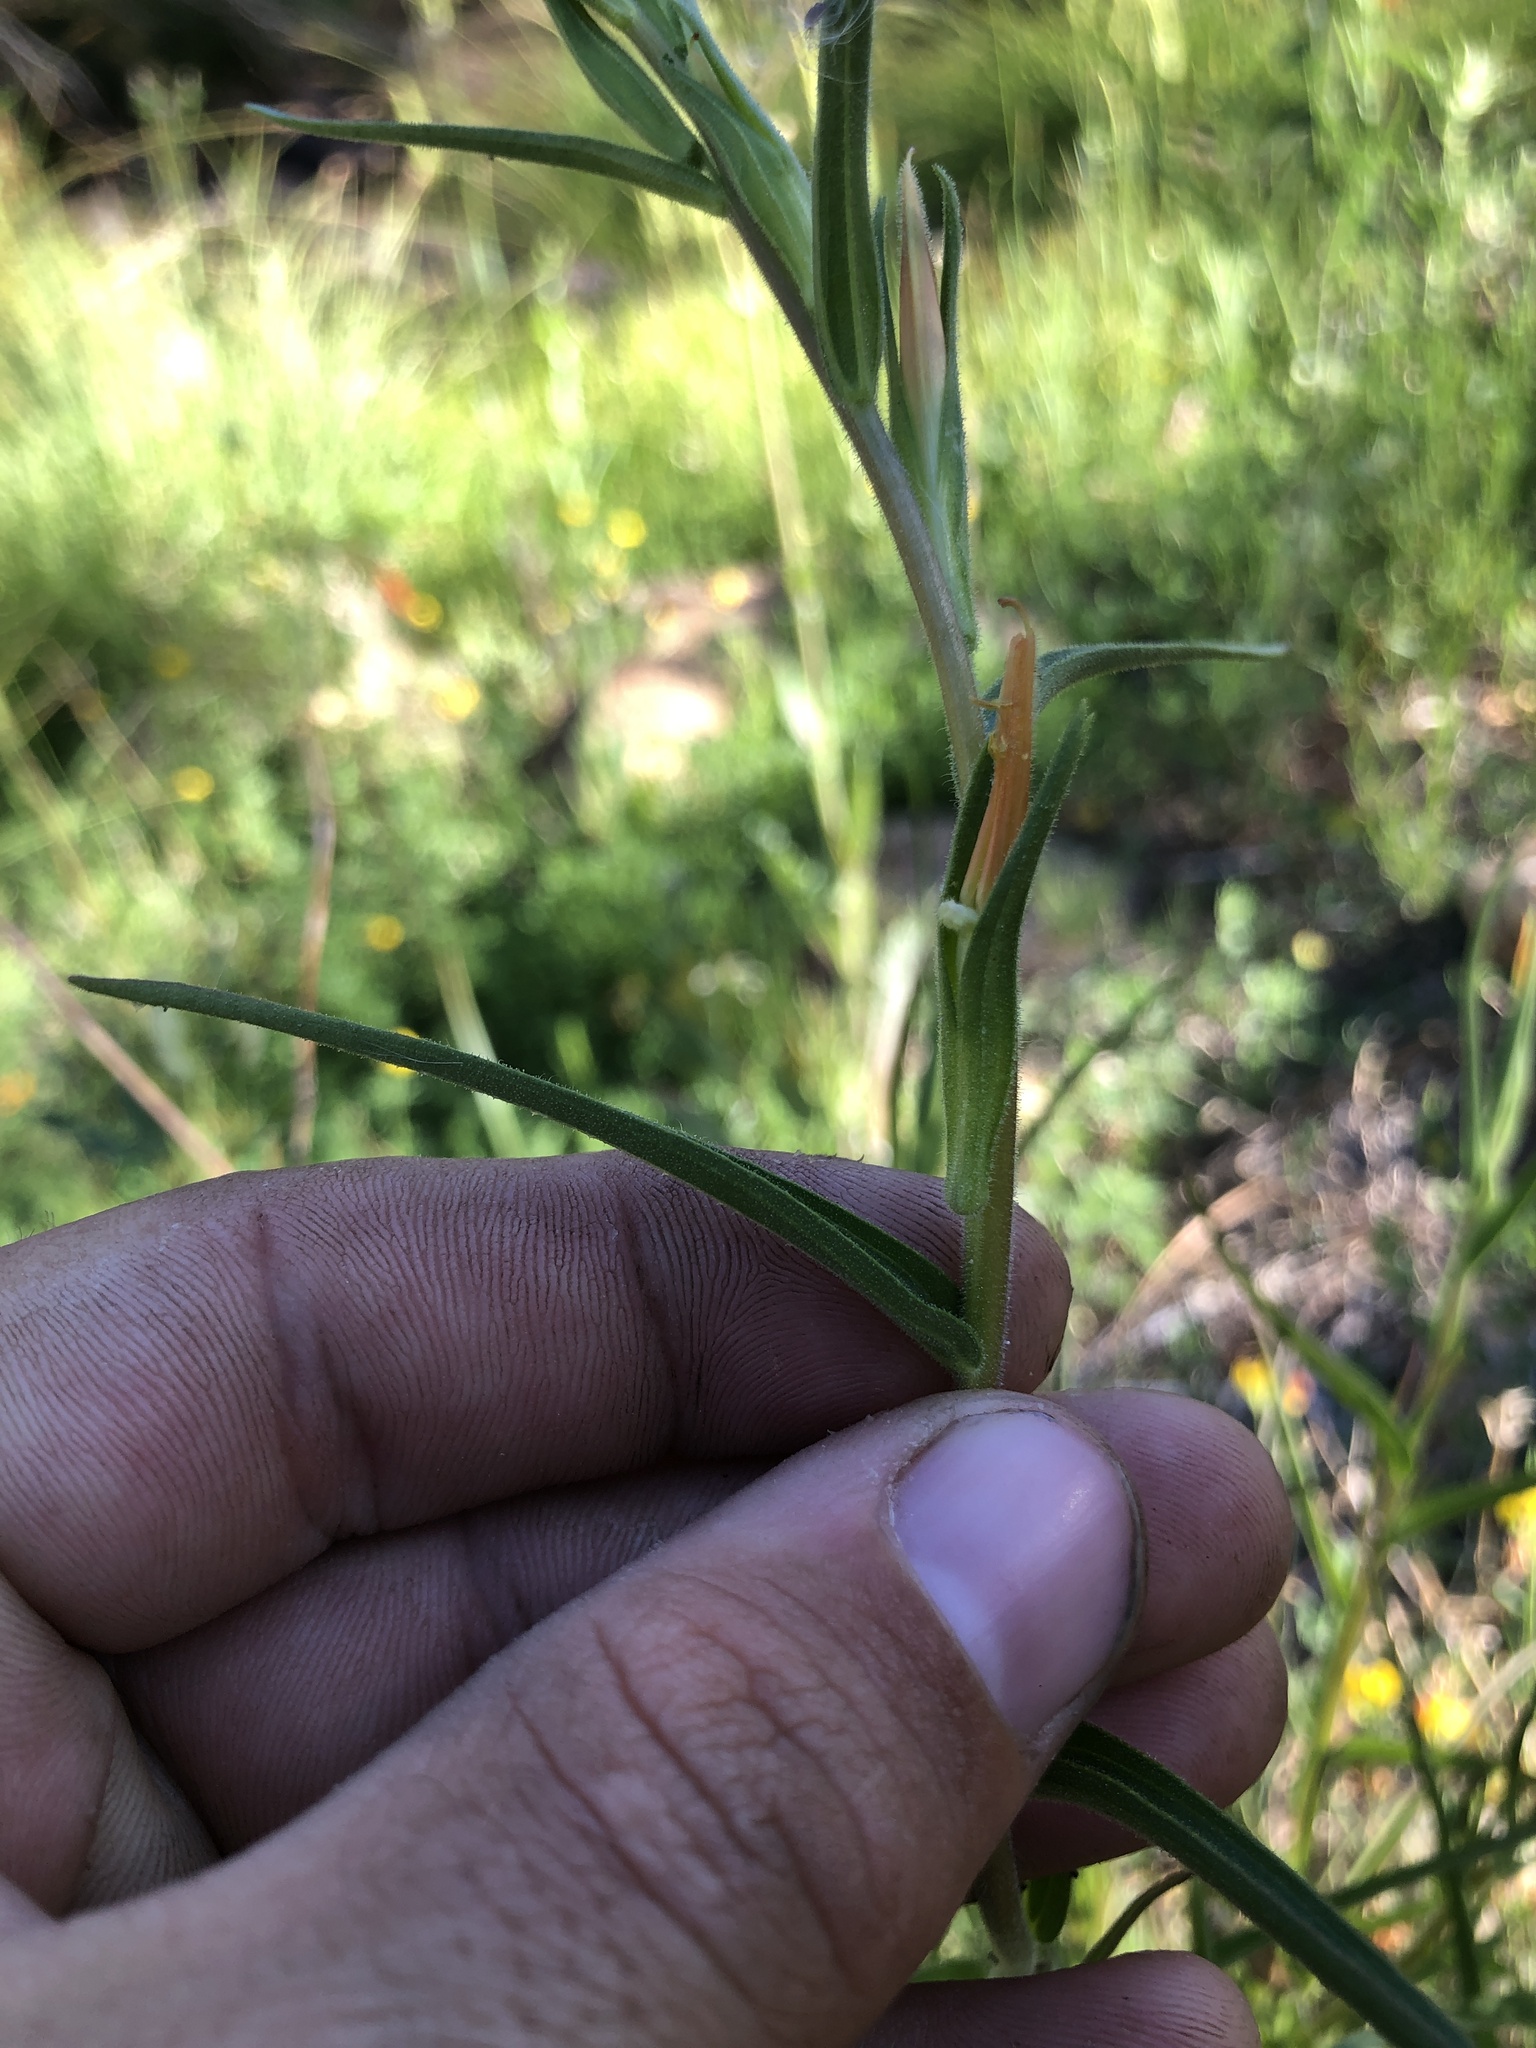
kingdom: Plantae
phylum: Tracheophyta
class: Magnoliopsida
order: Lamiales
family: Orobanchaceae
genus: Castilleja
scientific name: Castilleja minor
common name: Seep paintbrush
